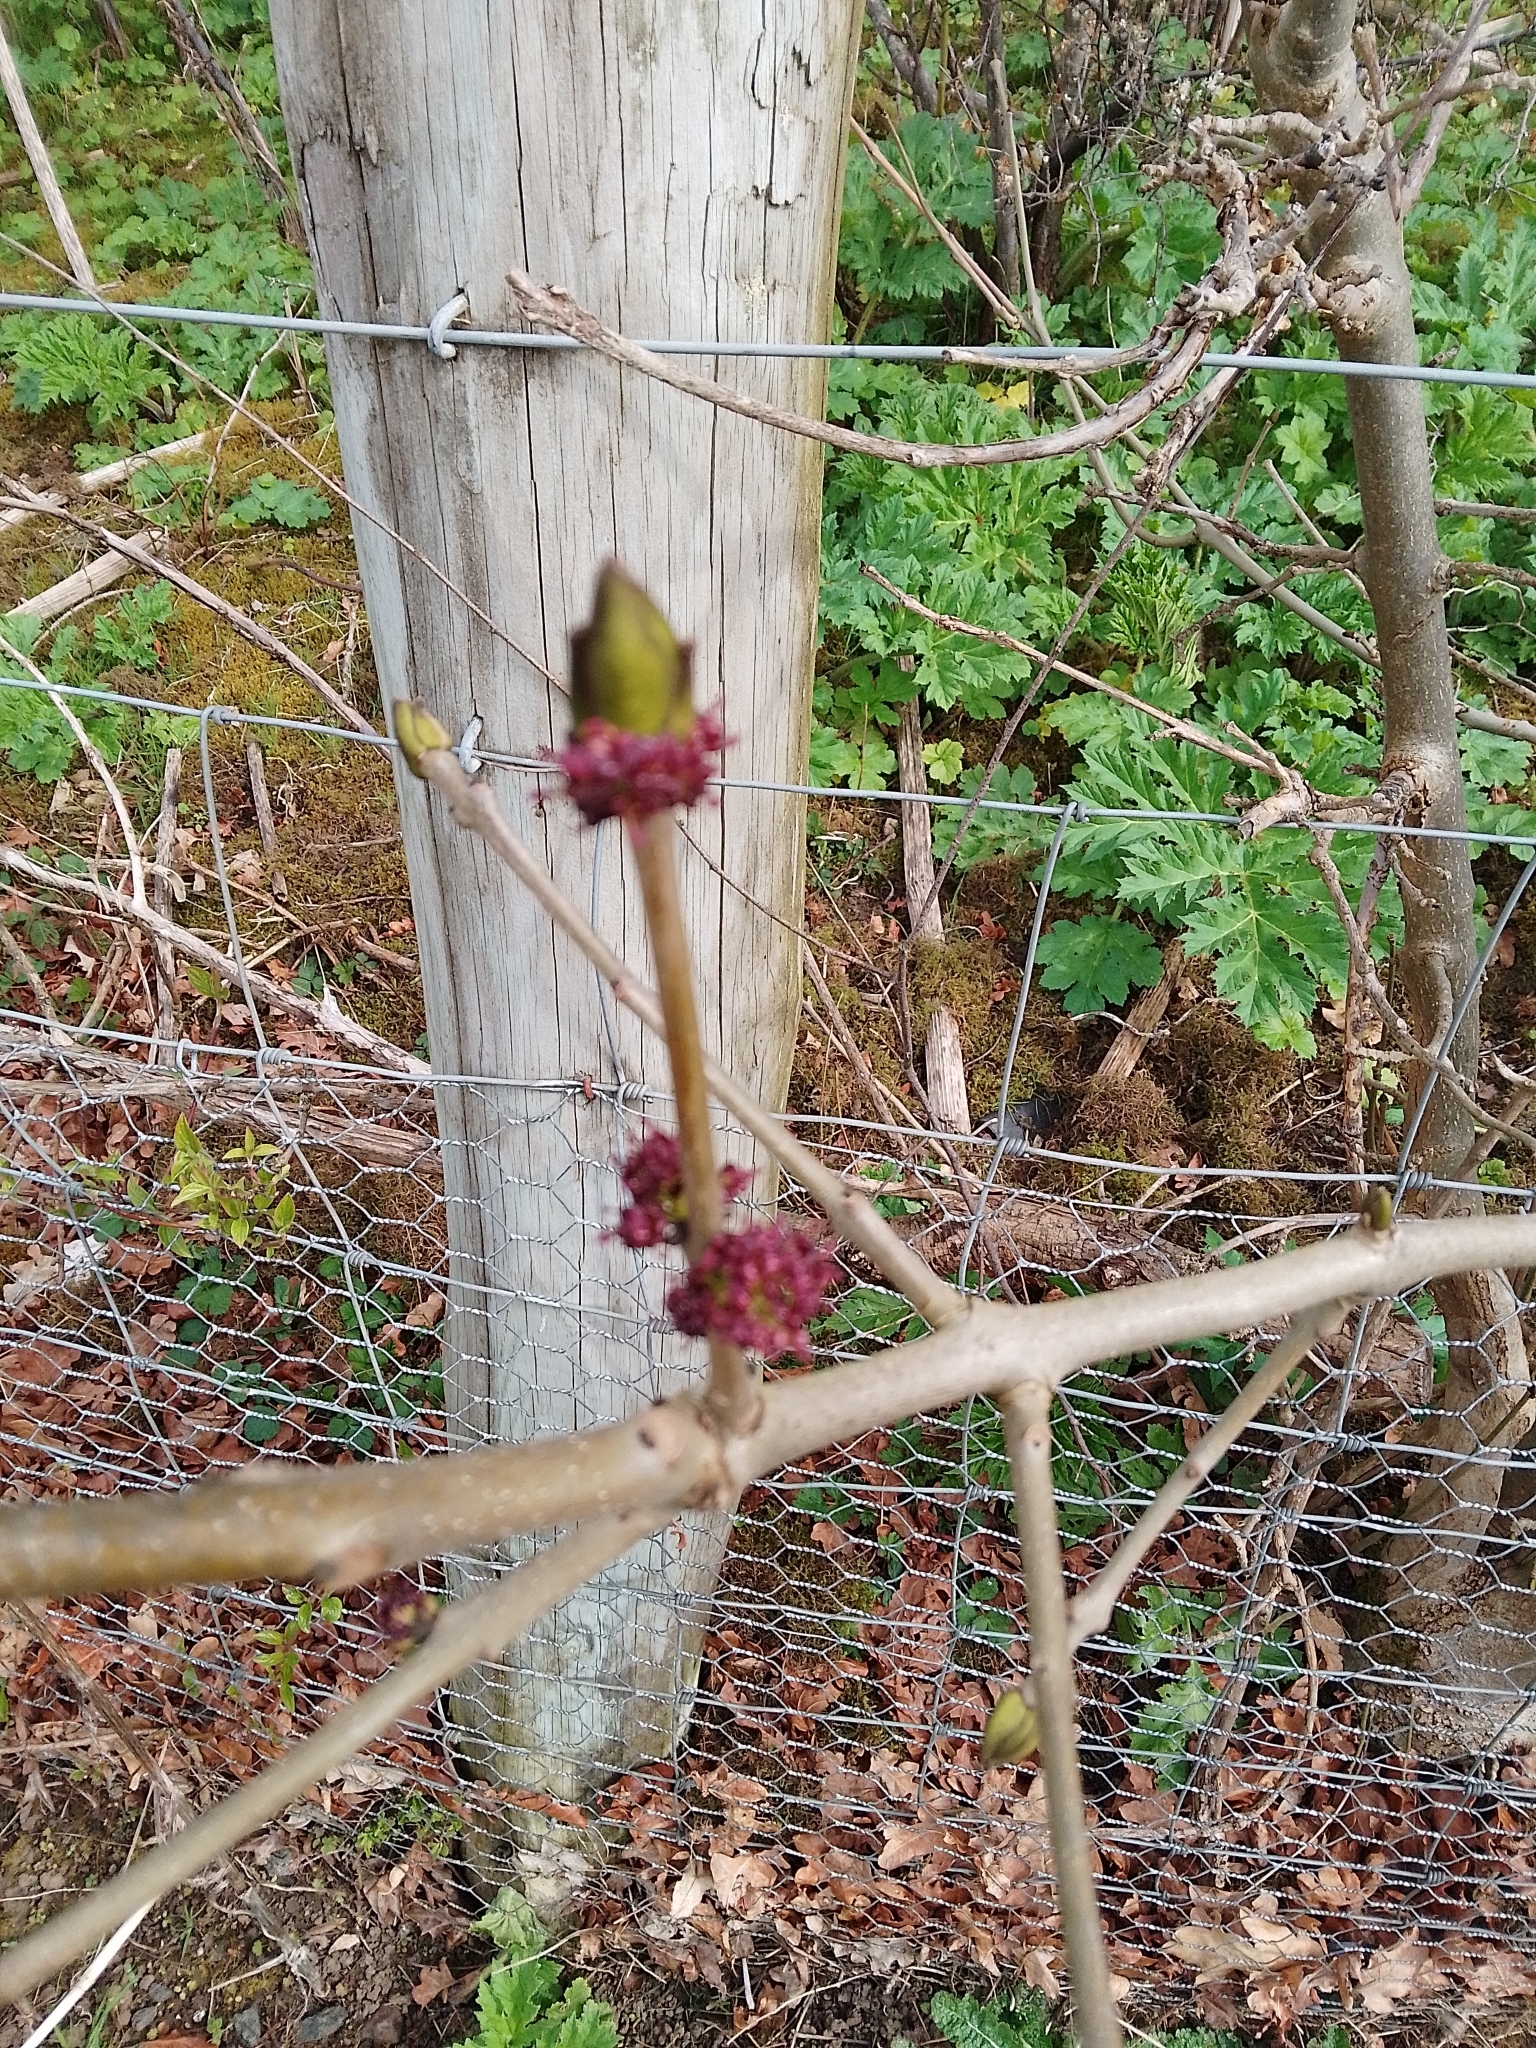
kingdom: Plantae
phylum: Tracheophyta
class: Magnoliopsida
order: Lamiales
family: Oleaceae
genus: Fraxinus
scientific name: Fraxinus excelsior
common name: European ash
